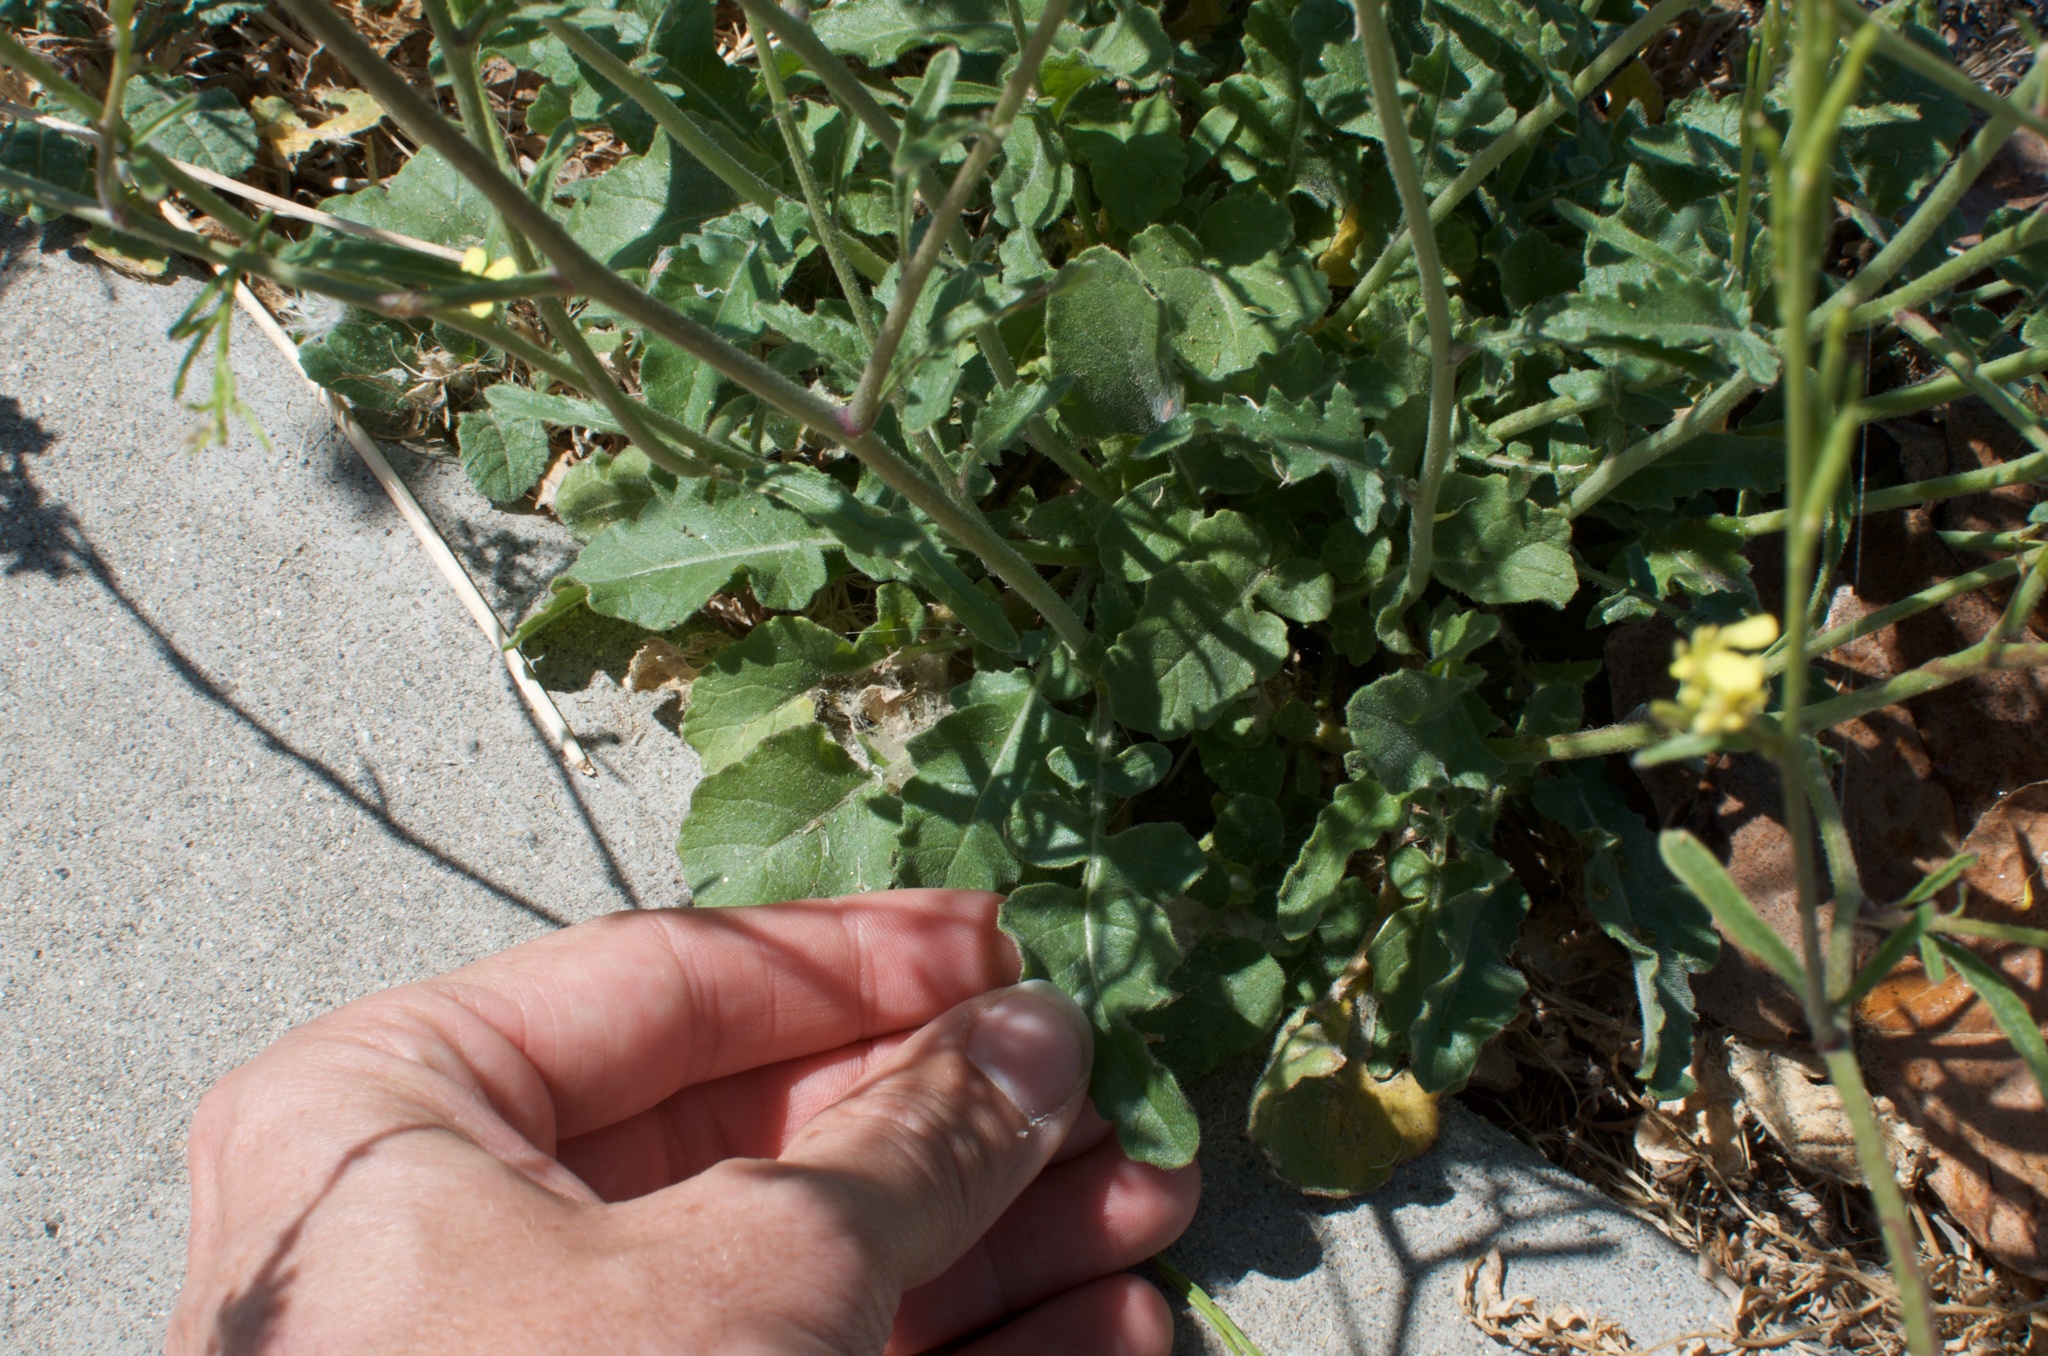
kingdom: Plantae
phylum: Tracheophyta
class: Magnoliopsida
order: Brassicales
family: Brassicaceae
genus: Hirschfeldia
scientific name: Hirschfeldia incana
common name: Hoary mustard
